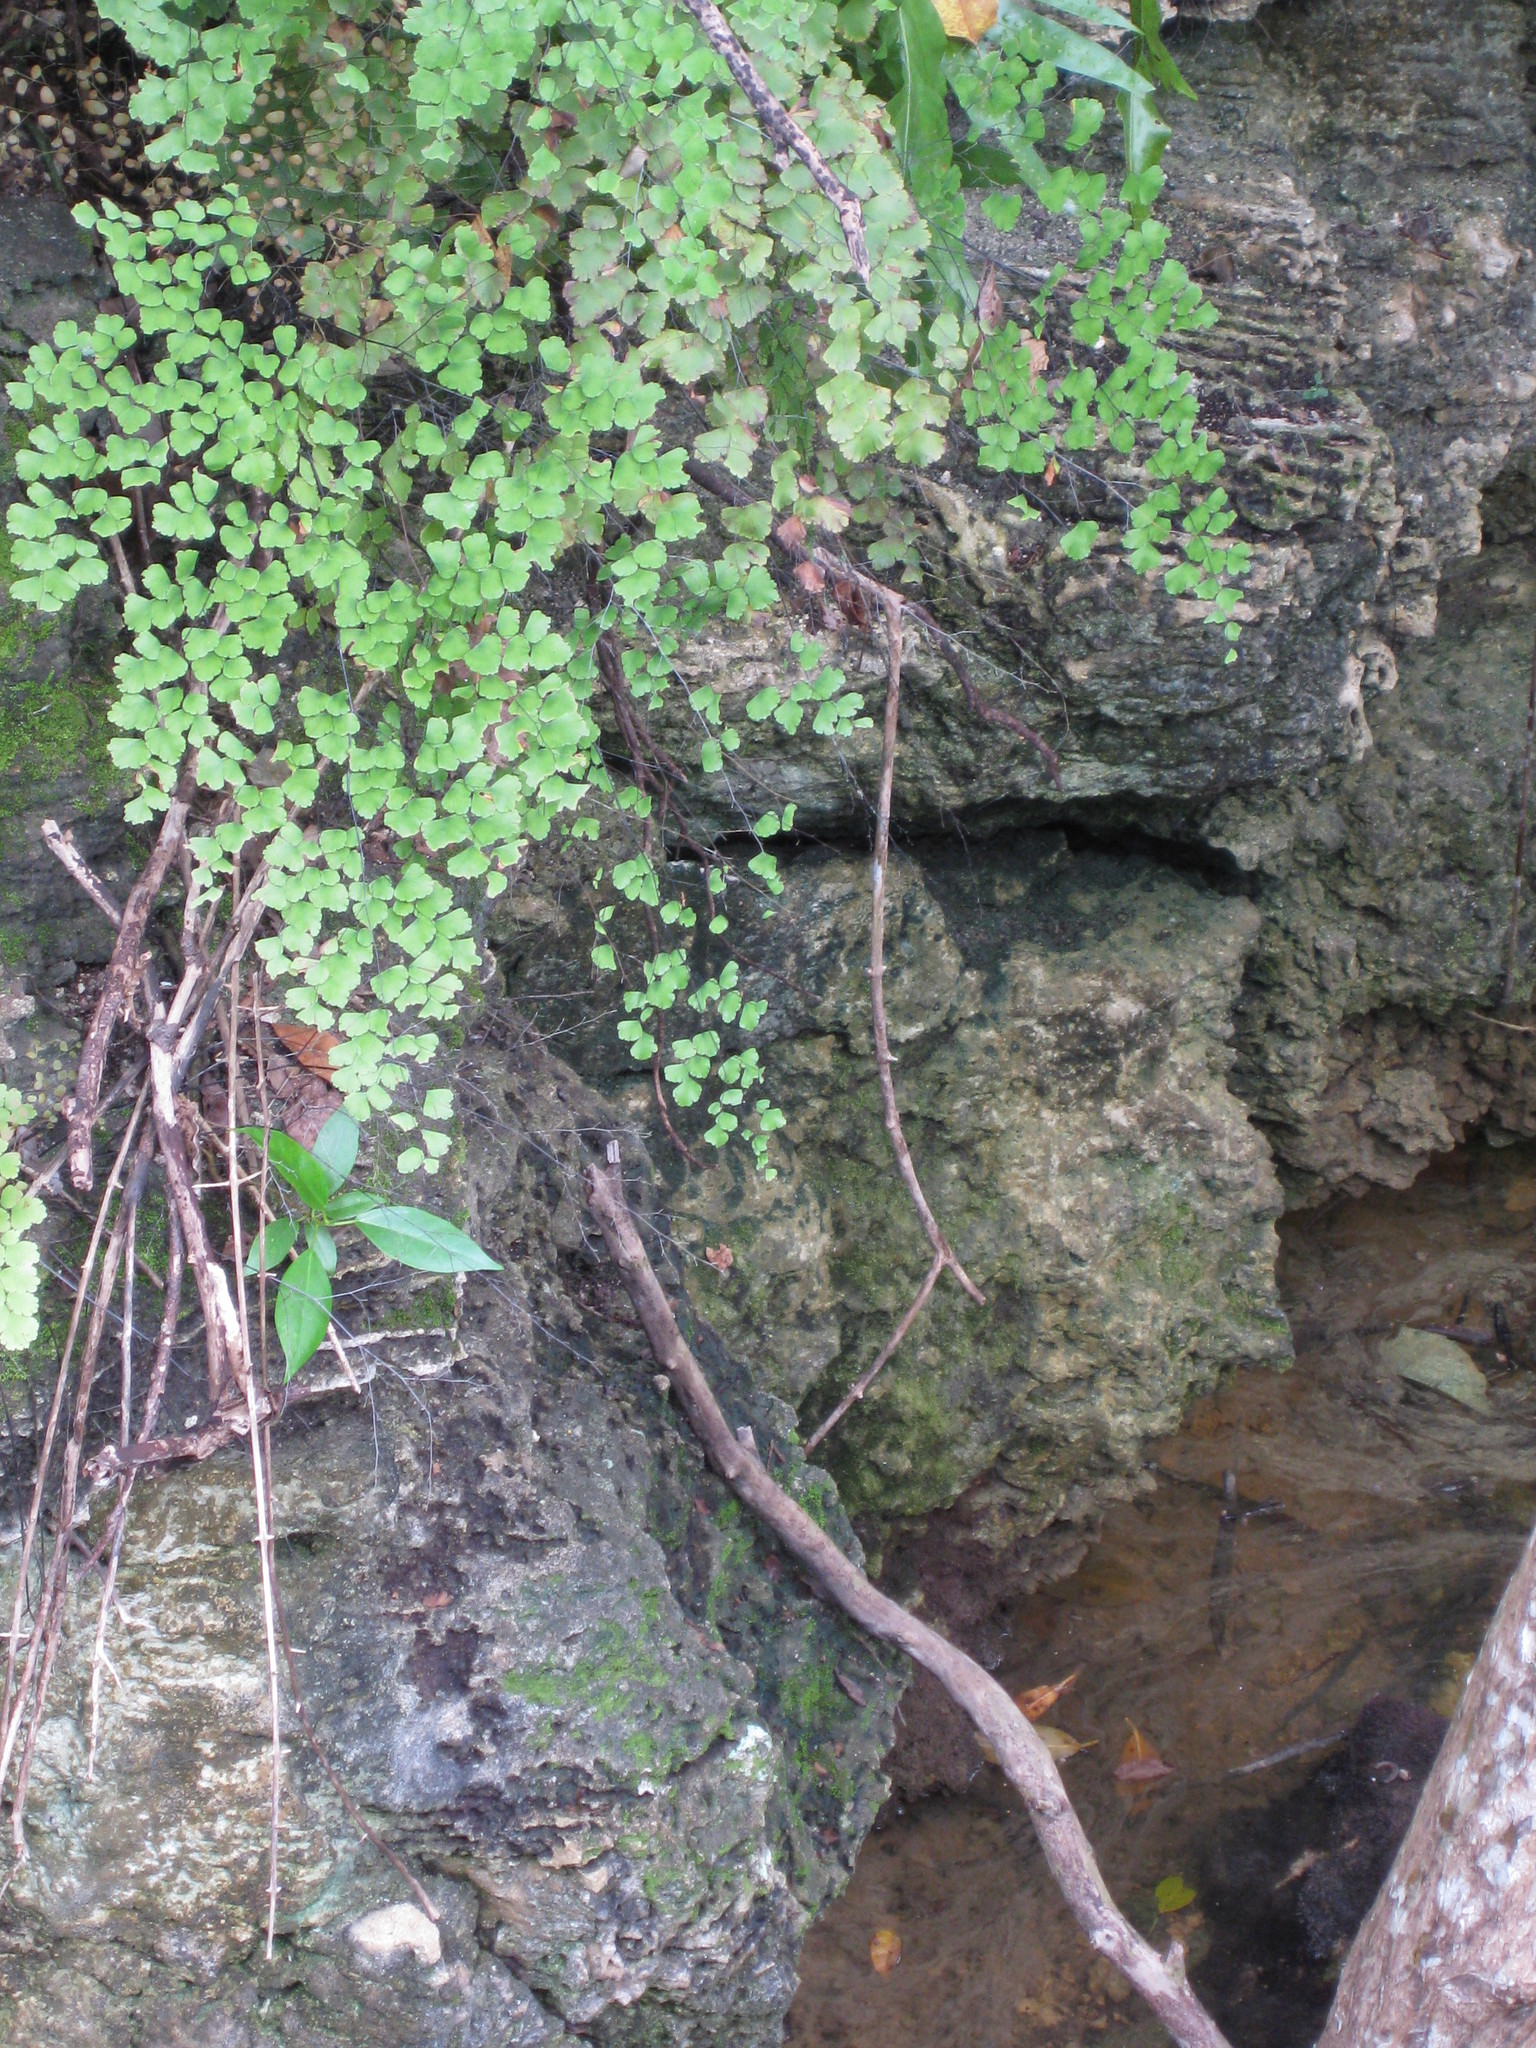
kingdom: Plantae
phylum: Tracheophyta
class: Polypodiopsida
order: Polypodiales
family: Pteridaceae
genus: Adiantum
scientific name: Adiantum tenerum
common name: Fan maidenhair
